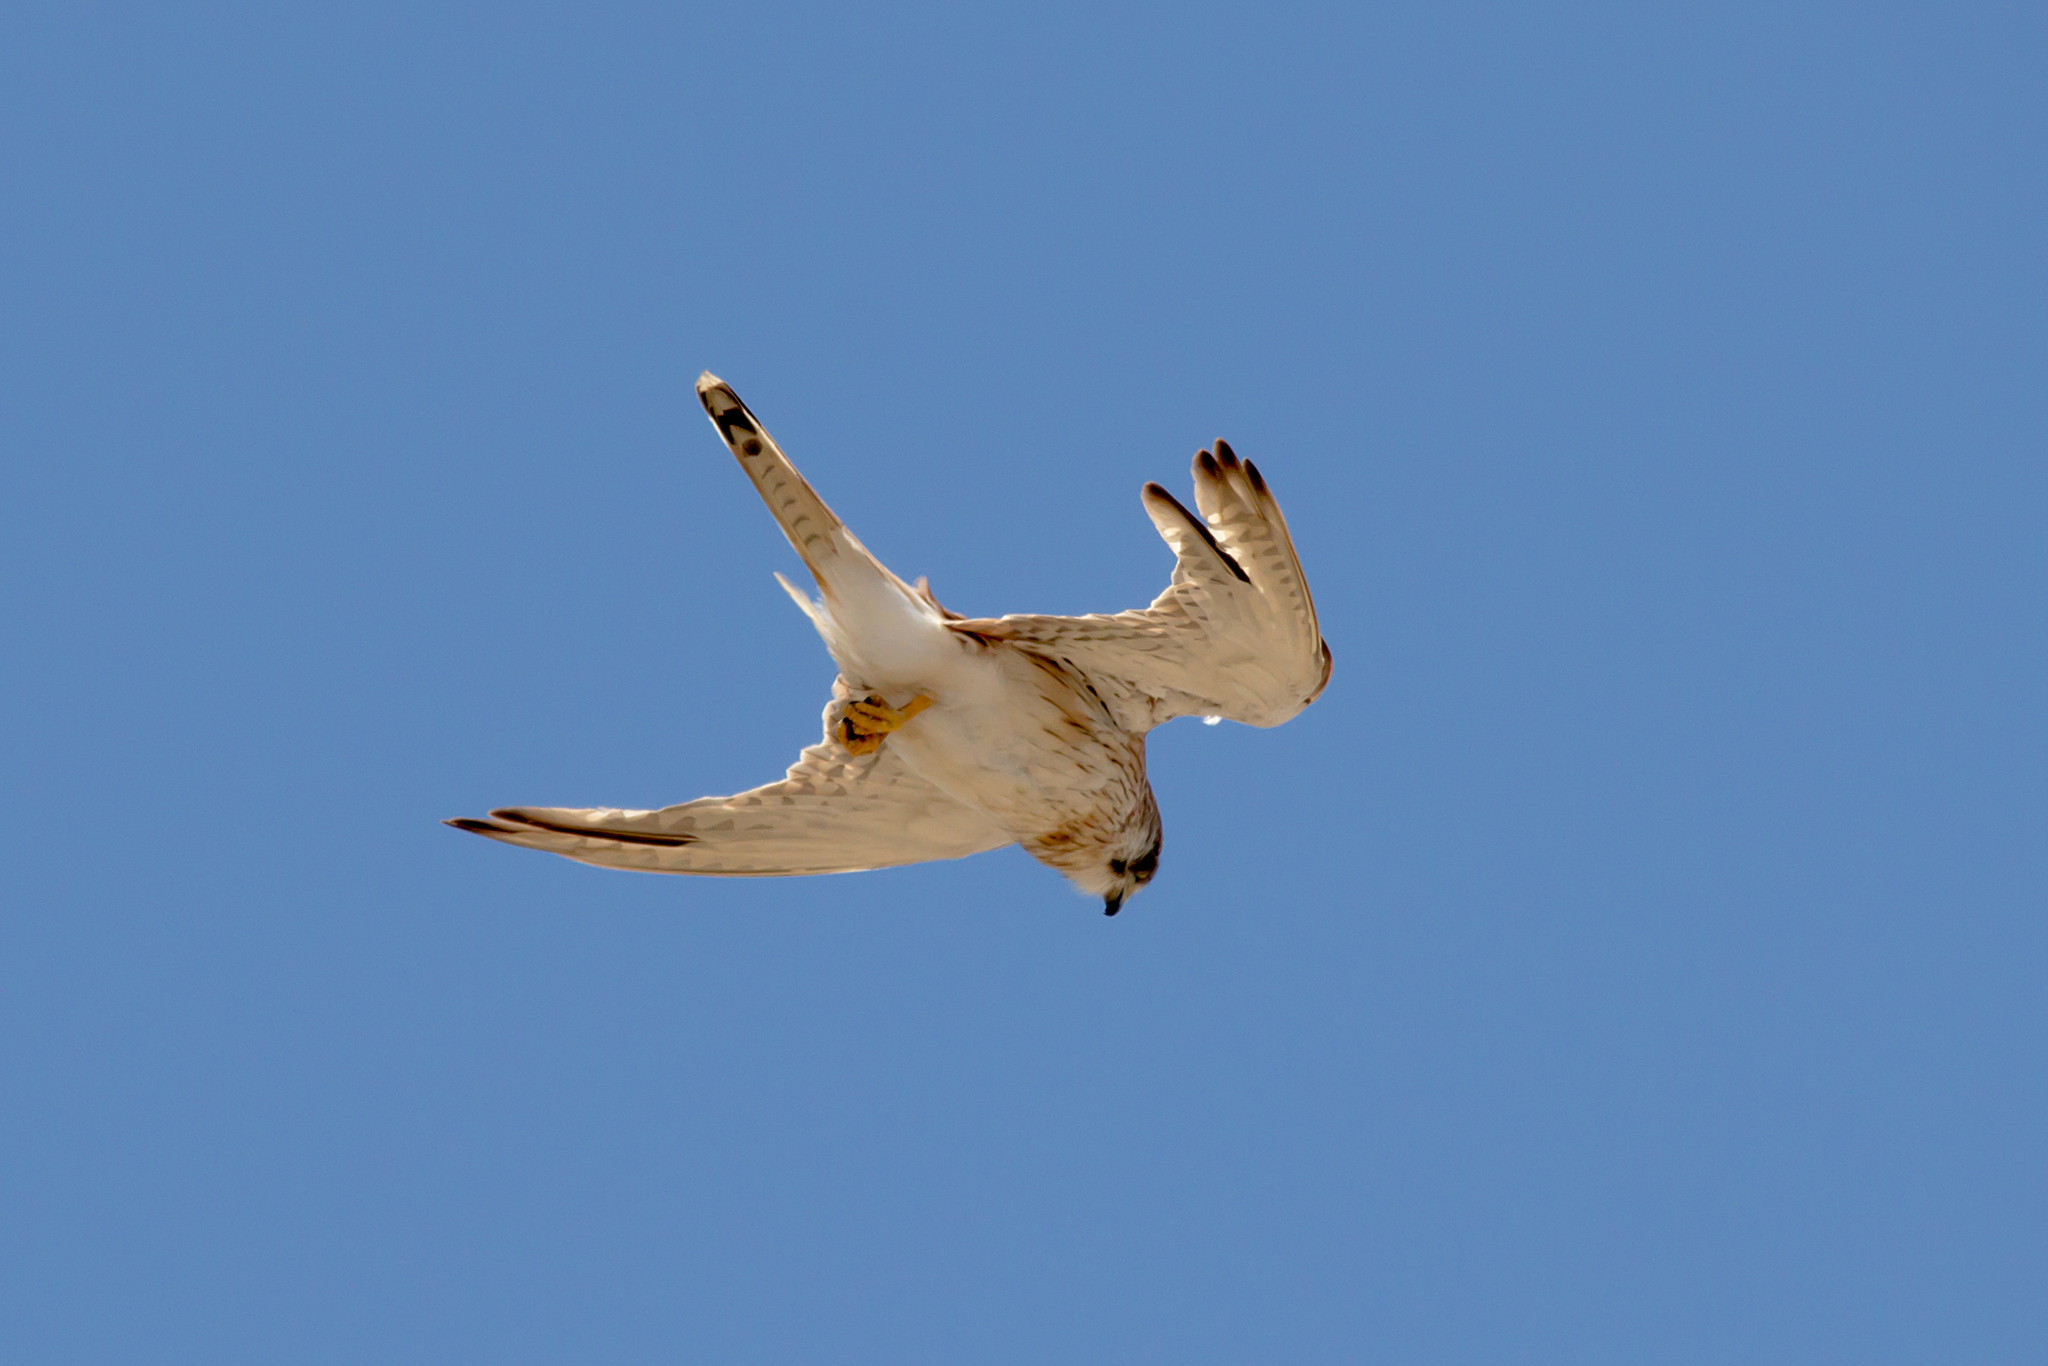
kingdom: Animalia
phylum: Chordata
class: Aves
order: Falconiformes
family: Falconidae
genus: Falco
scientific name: Falco cenchroides
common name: Nankeen kestrel
